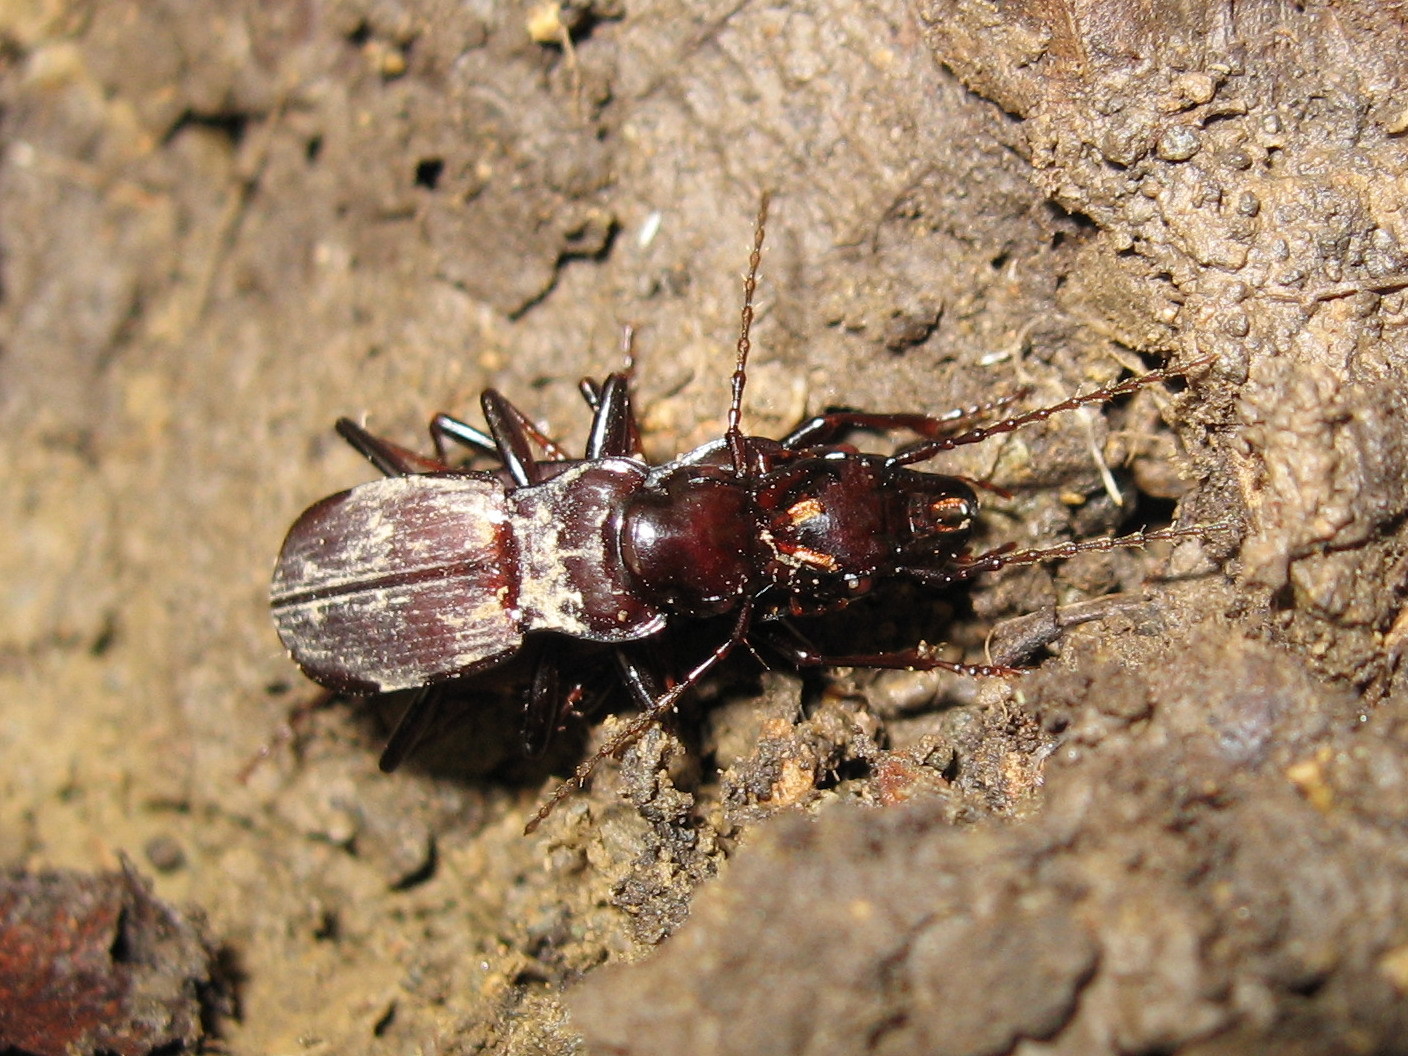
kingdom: Animalia
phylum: Arthropoda
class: Insecta
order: Coleoptera
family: Carabidae
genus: Pterostichus
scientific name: Pterostichus microps
